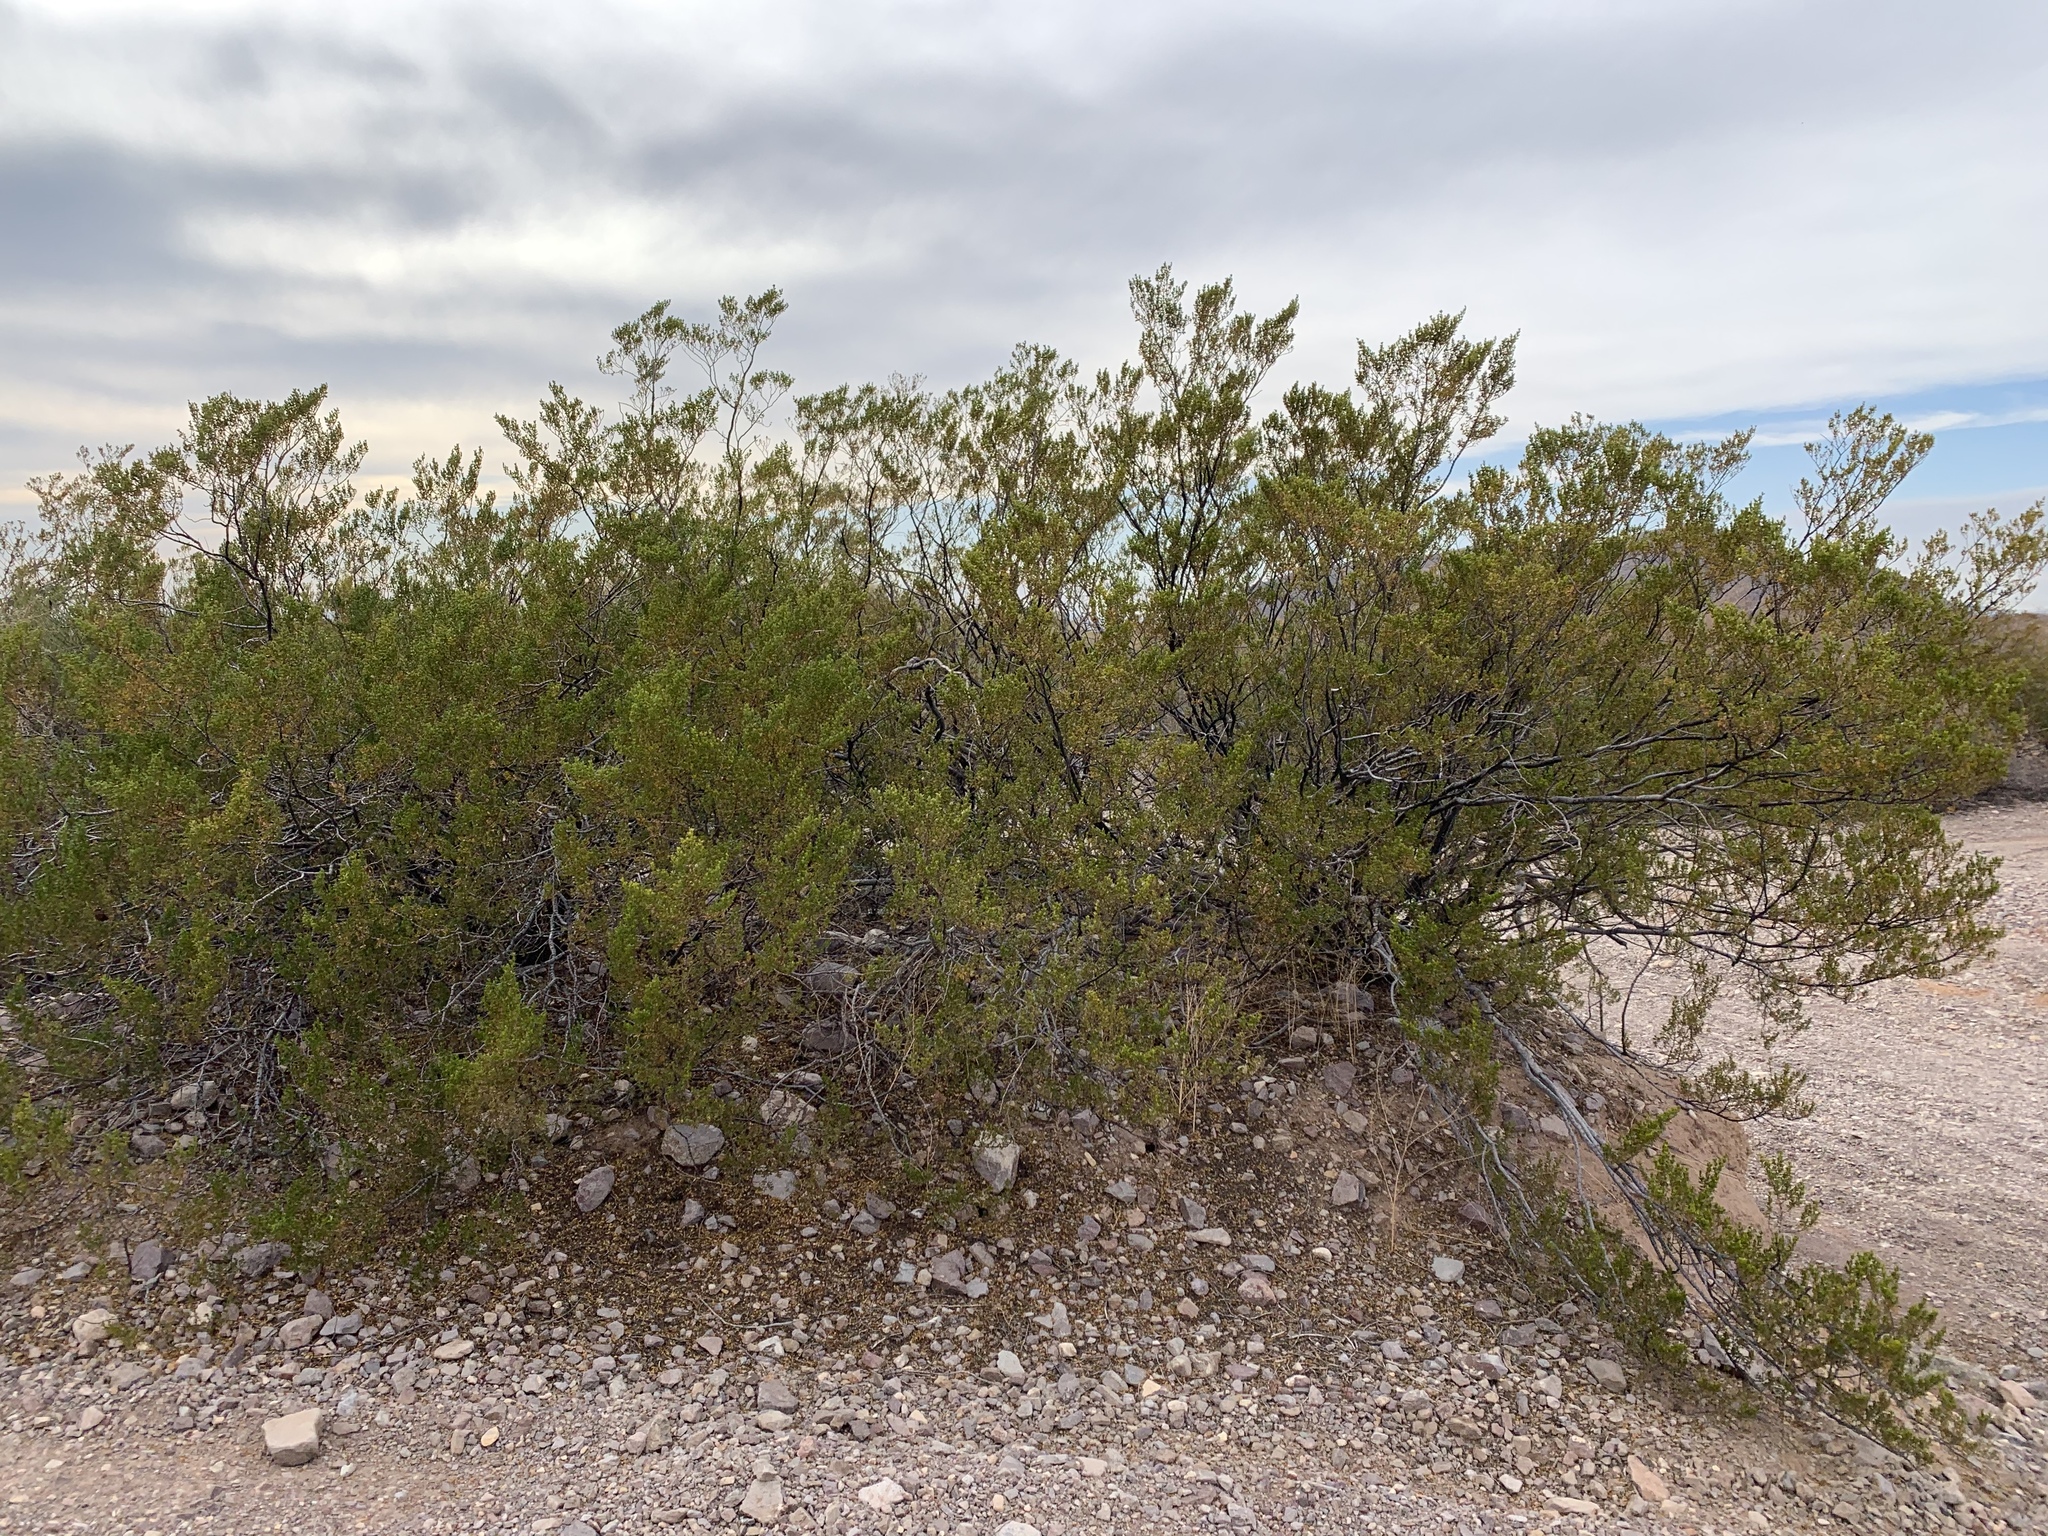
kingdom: Plantae
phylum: Tracheophyta
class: Magnoliopsida
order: Zygophyllales
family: Zygophyllaceae
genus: Larrea
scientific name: Larrea tridentata
